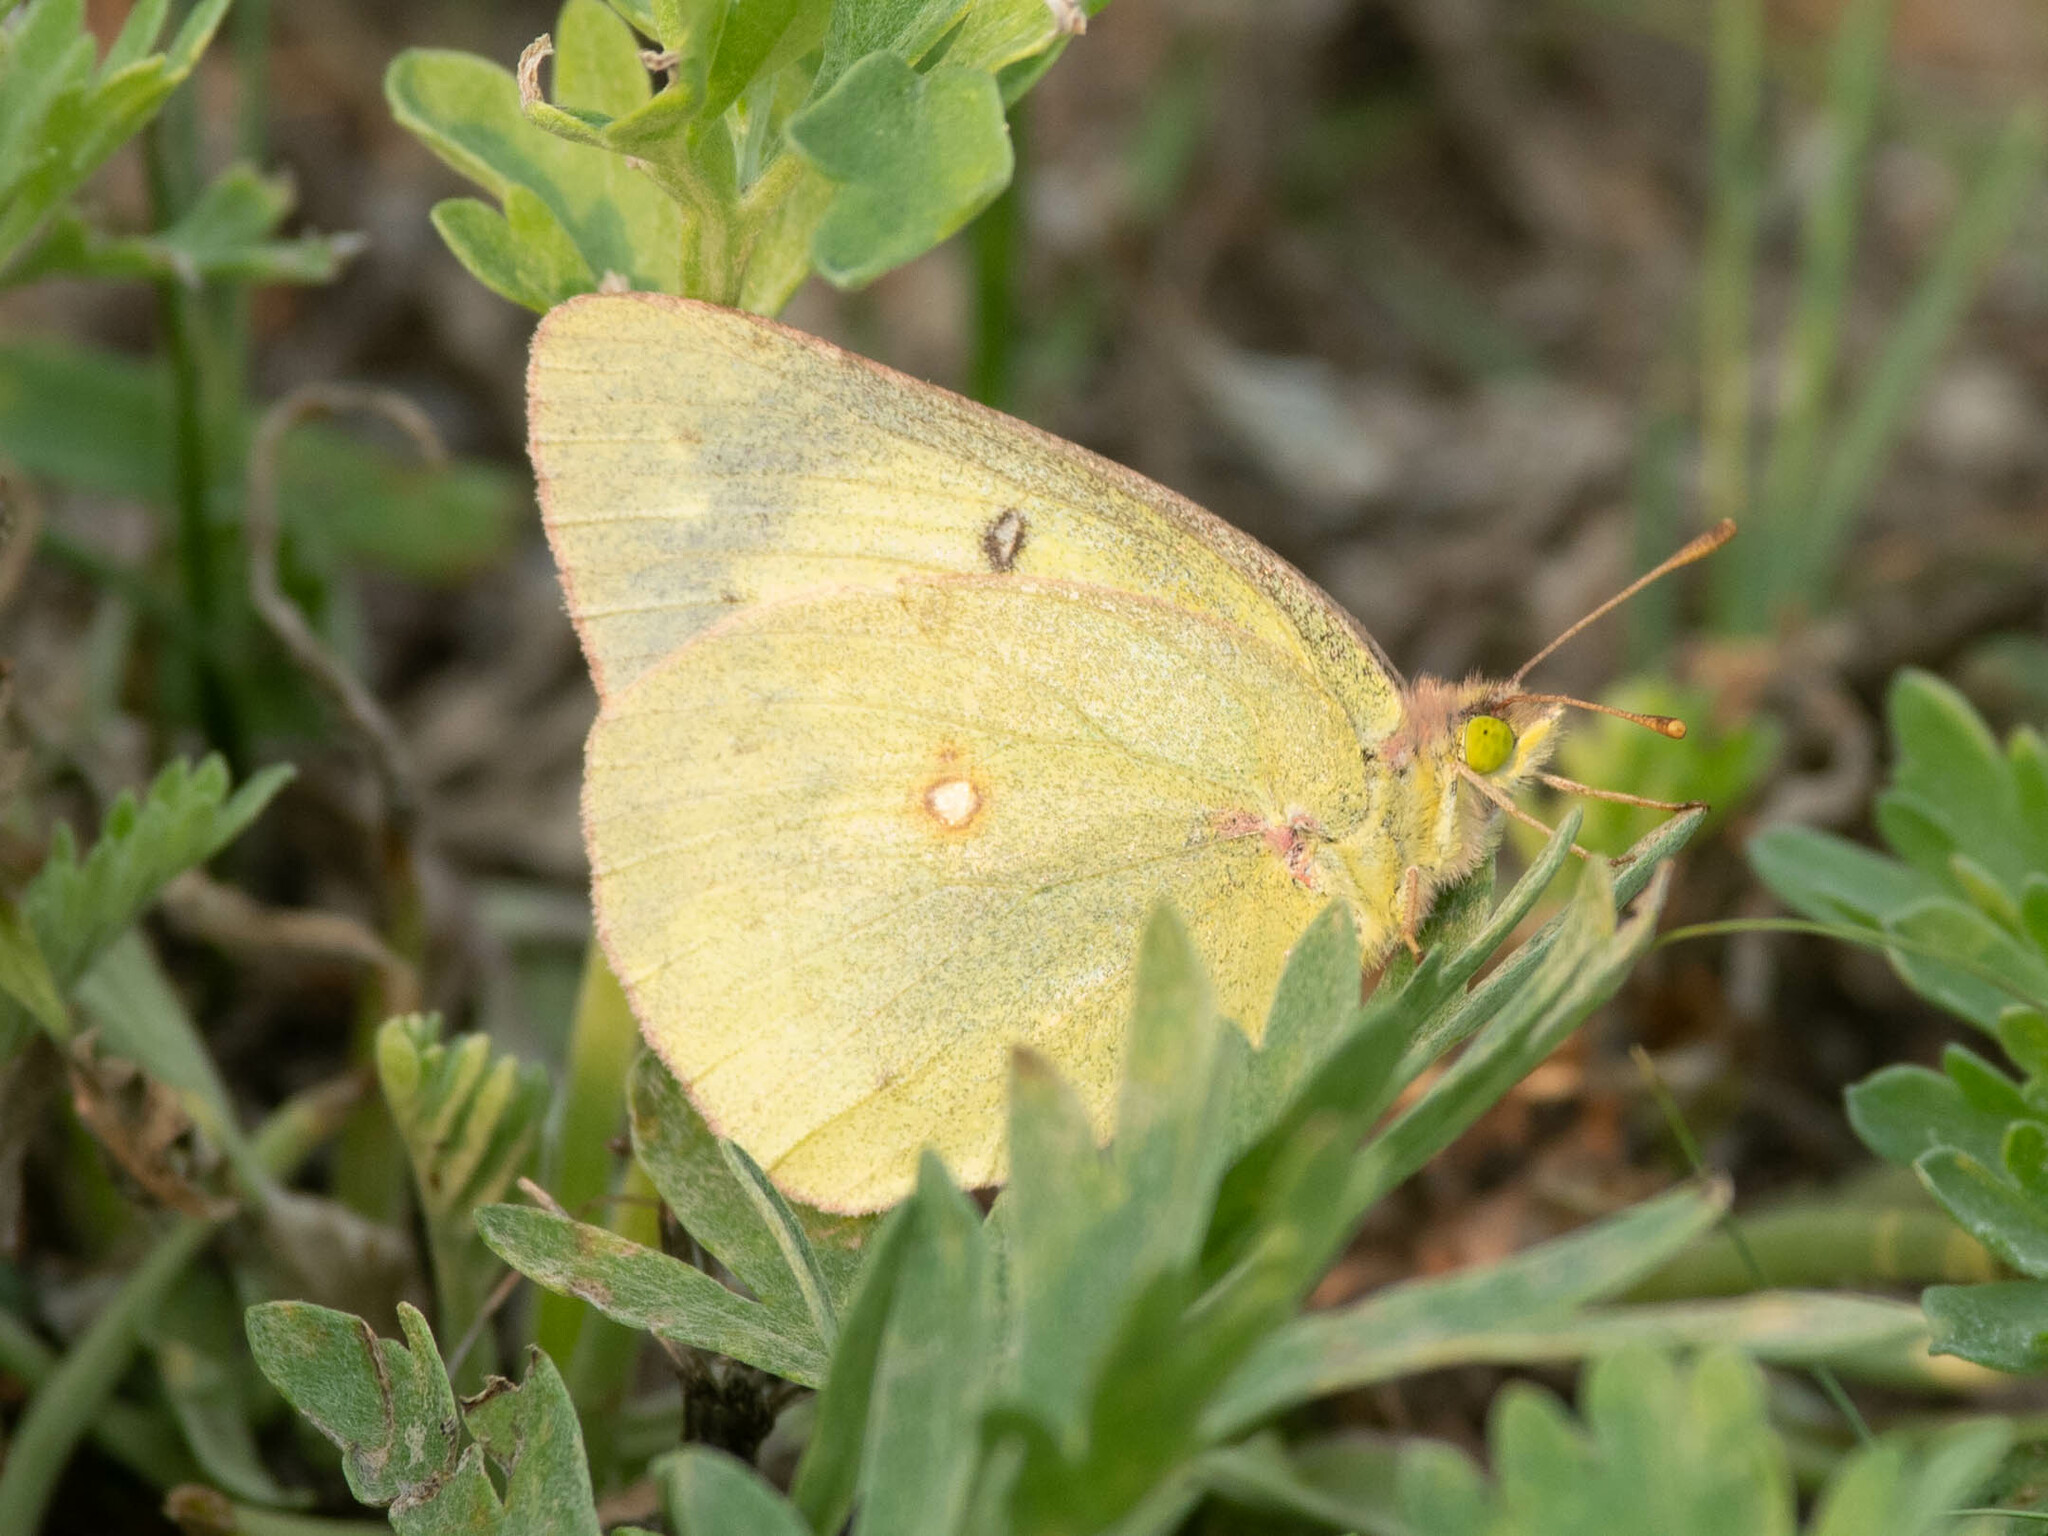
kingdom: Animalia
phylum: Arthropoda
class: Insecta
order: Lepidoptera
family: Pieridae
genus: Colias
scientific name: Colias philodice
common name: Clouded sulphur
